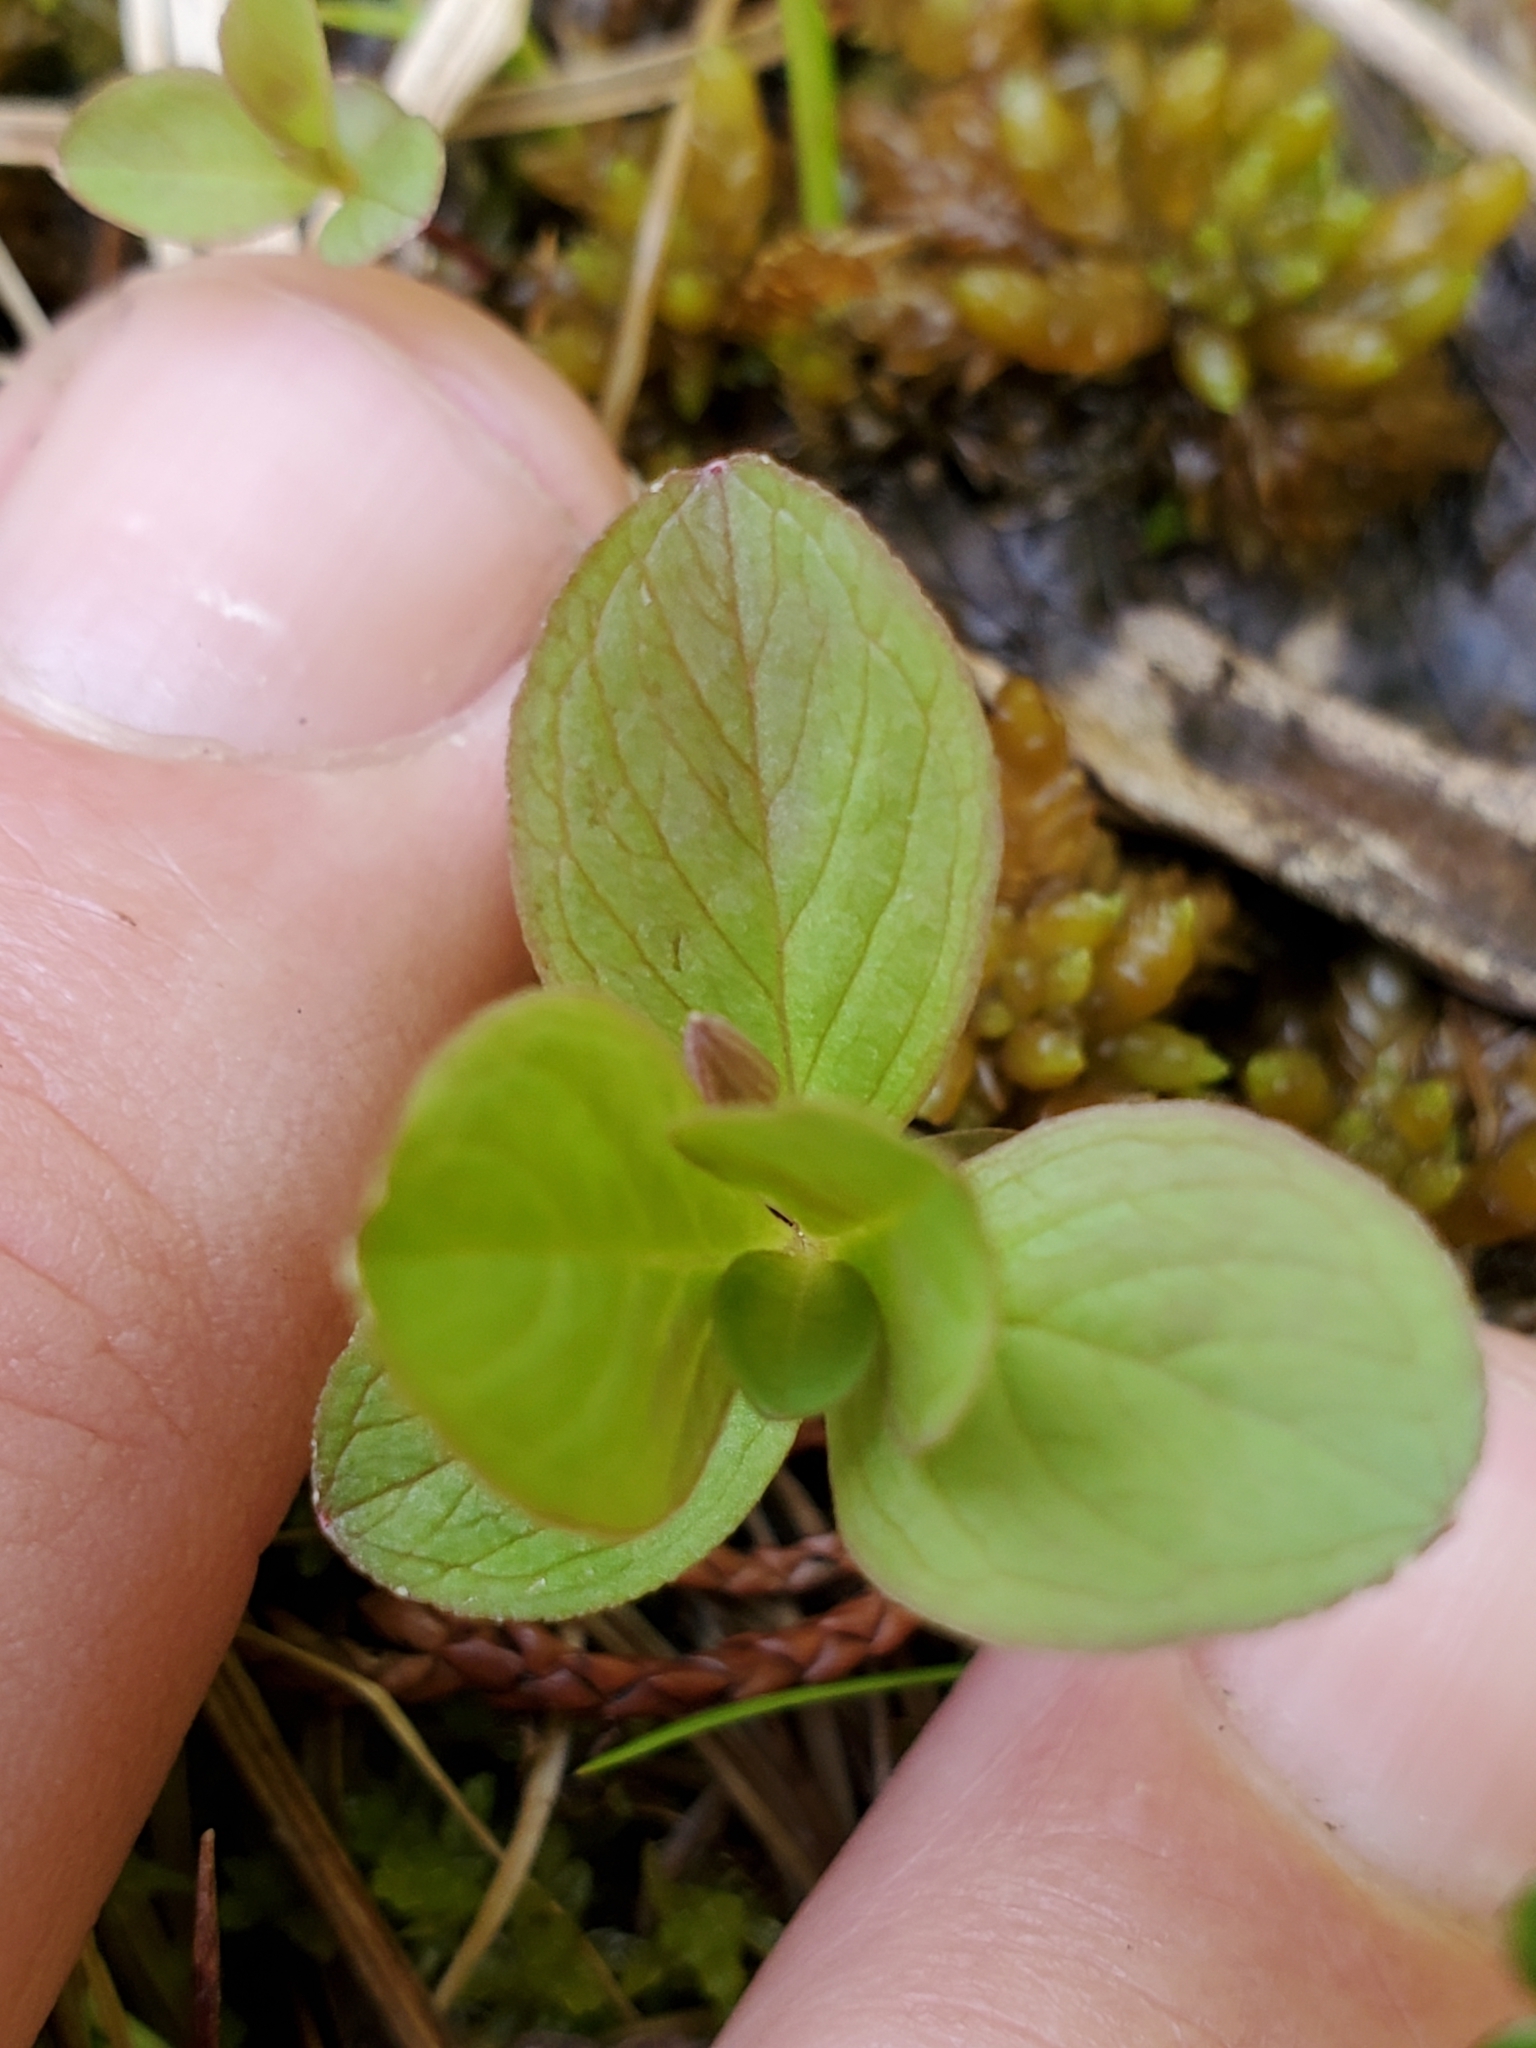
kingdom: Plantae
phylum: Tracheophyta
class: Magnoliopsida
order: Ericales
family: Primulaceae
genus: Lysimachia
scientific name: Lysimachia europaea
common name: Arctic starflower
